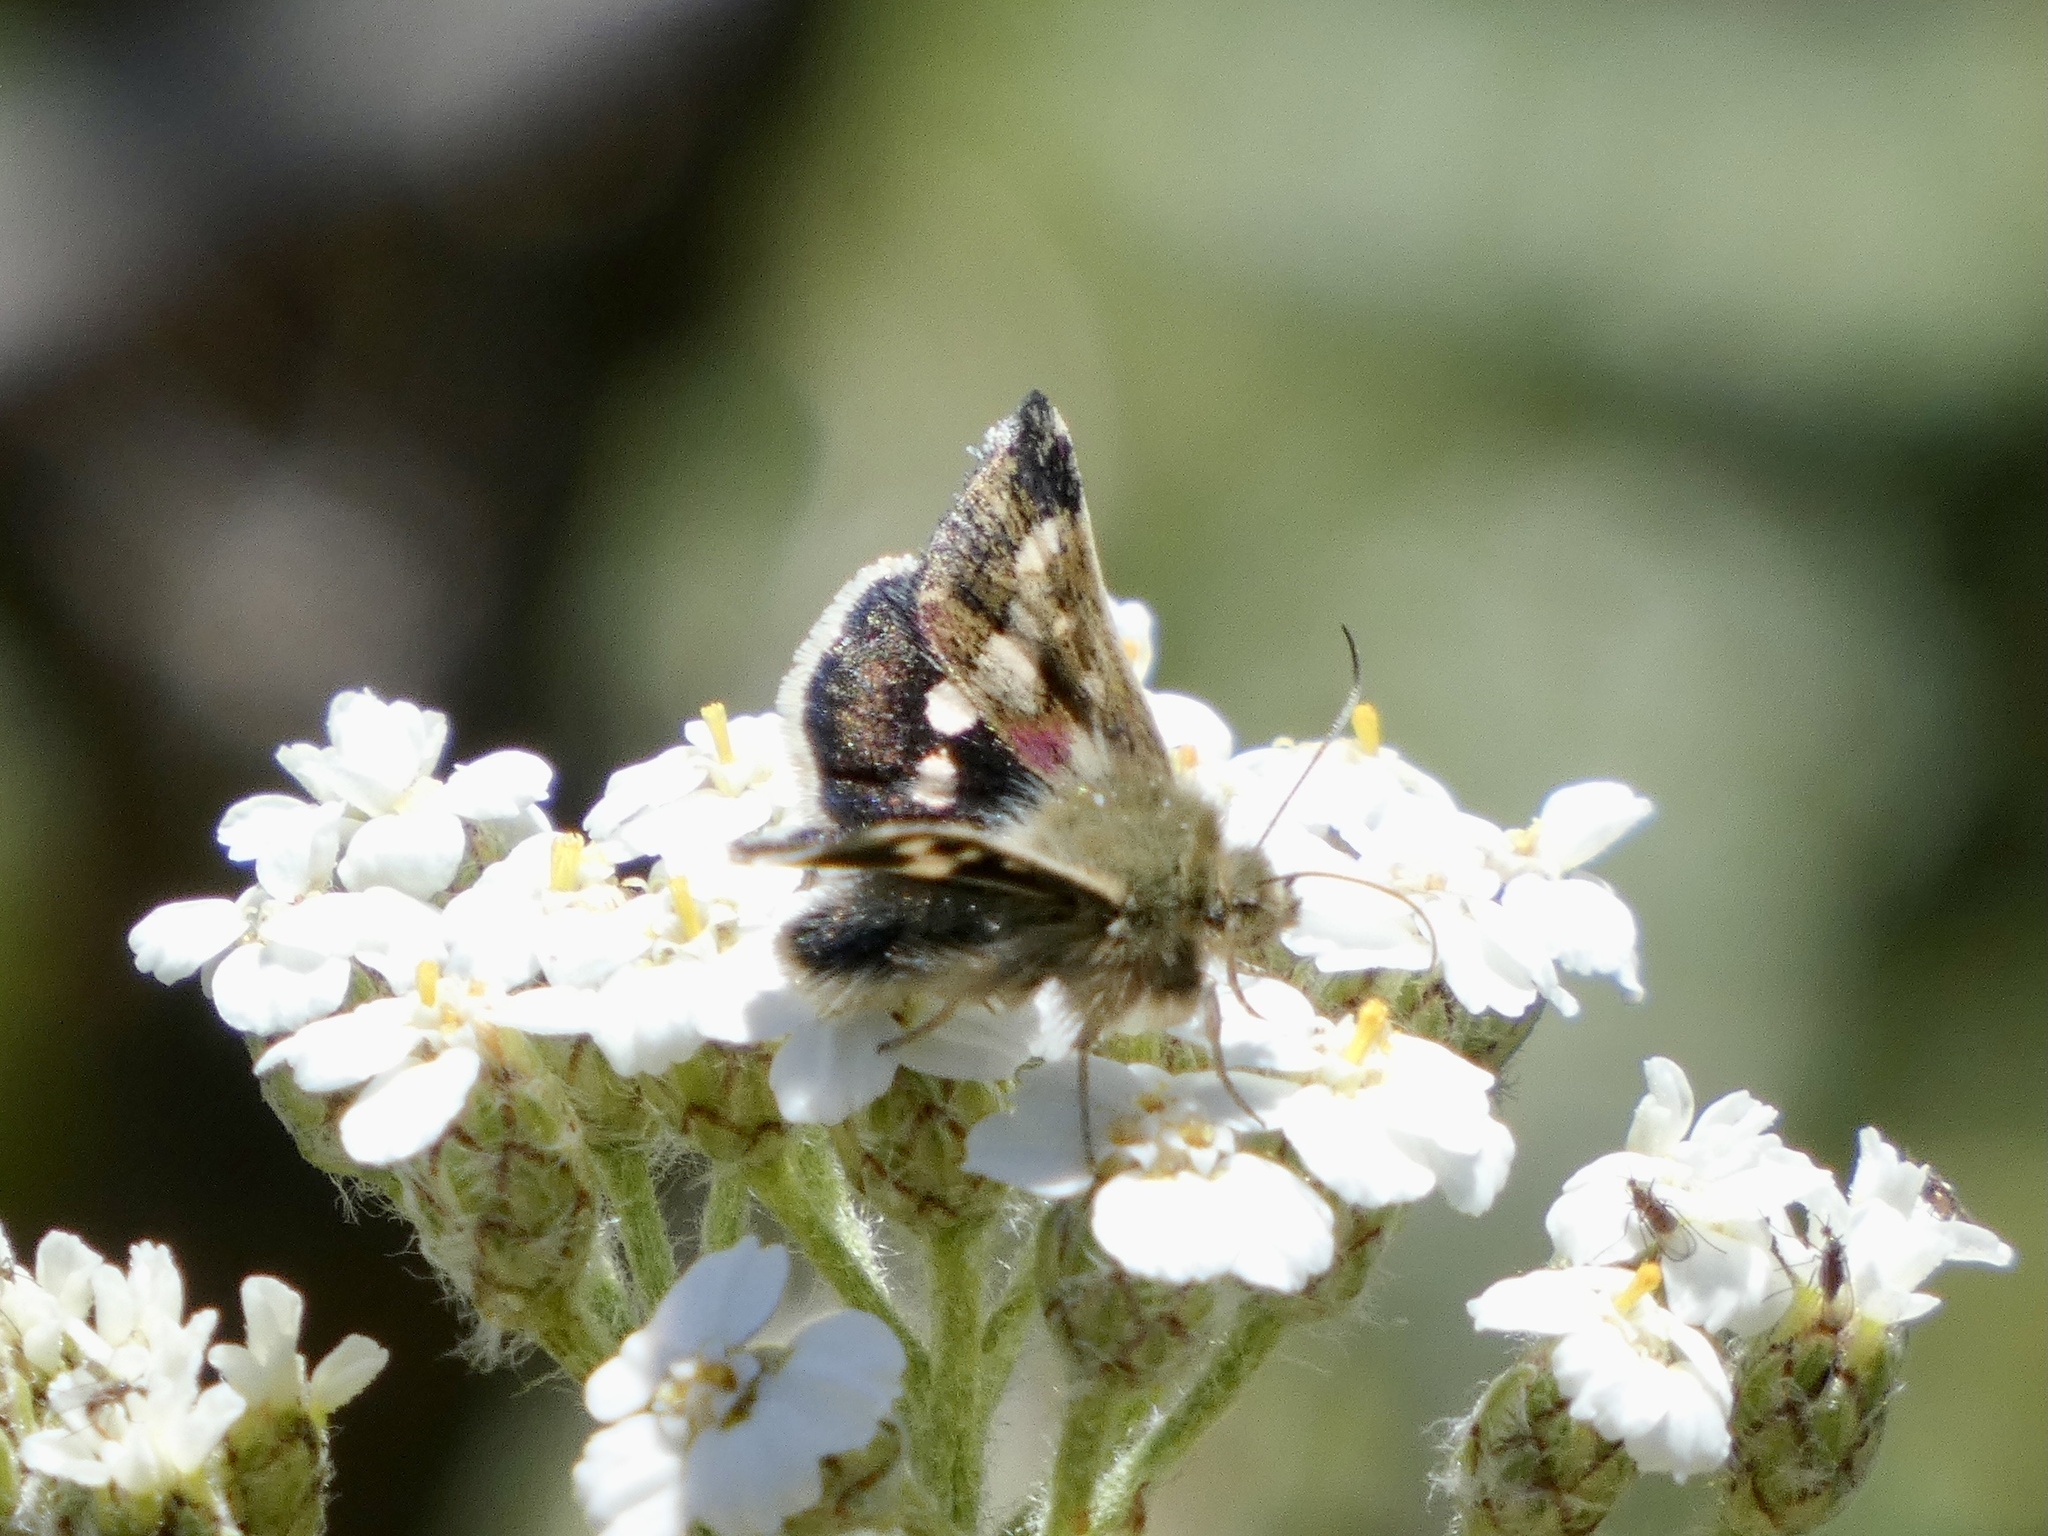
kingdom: Animalia
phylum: Arthropoda
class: Insecta
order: Lepidoptera
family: Noctuidae
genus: Heliothodes
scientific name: Heliothodes diminutiva
